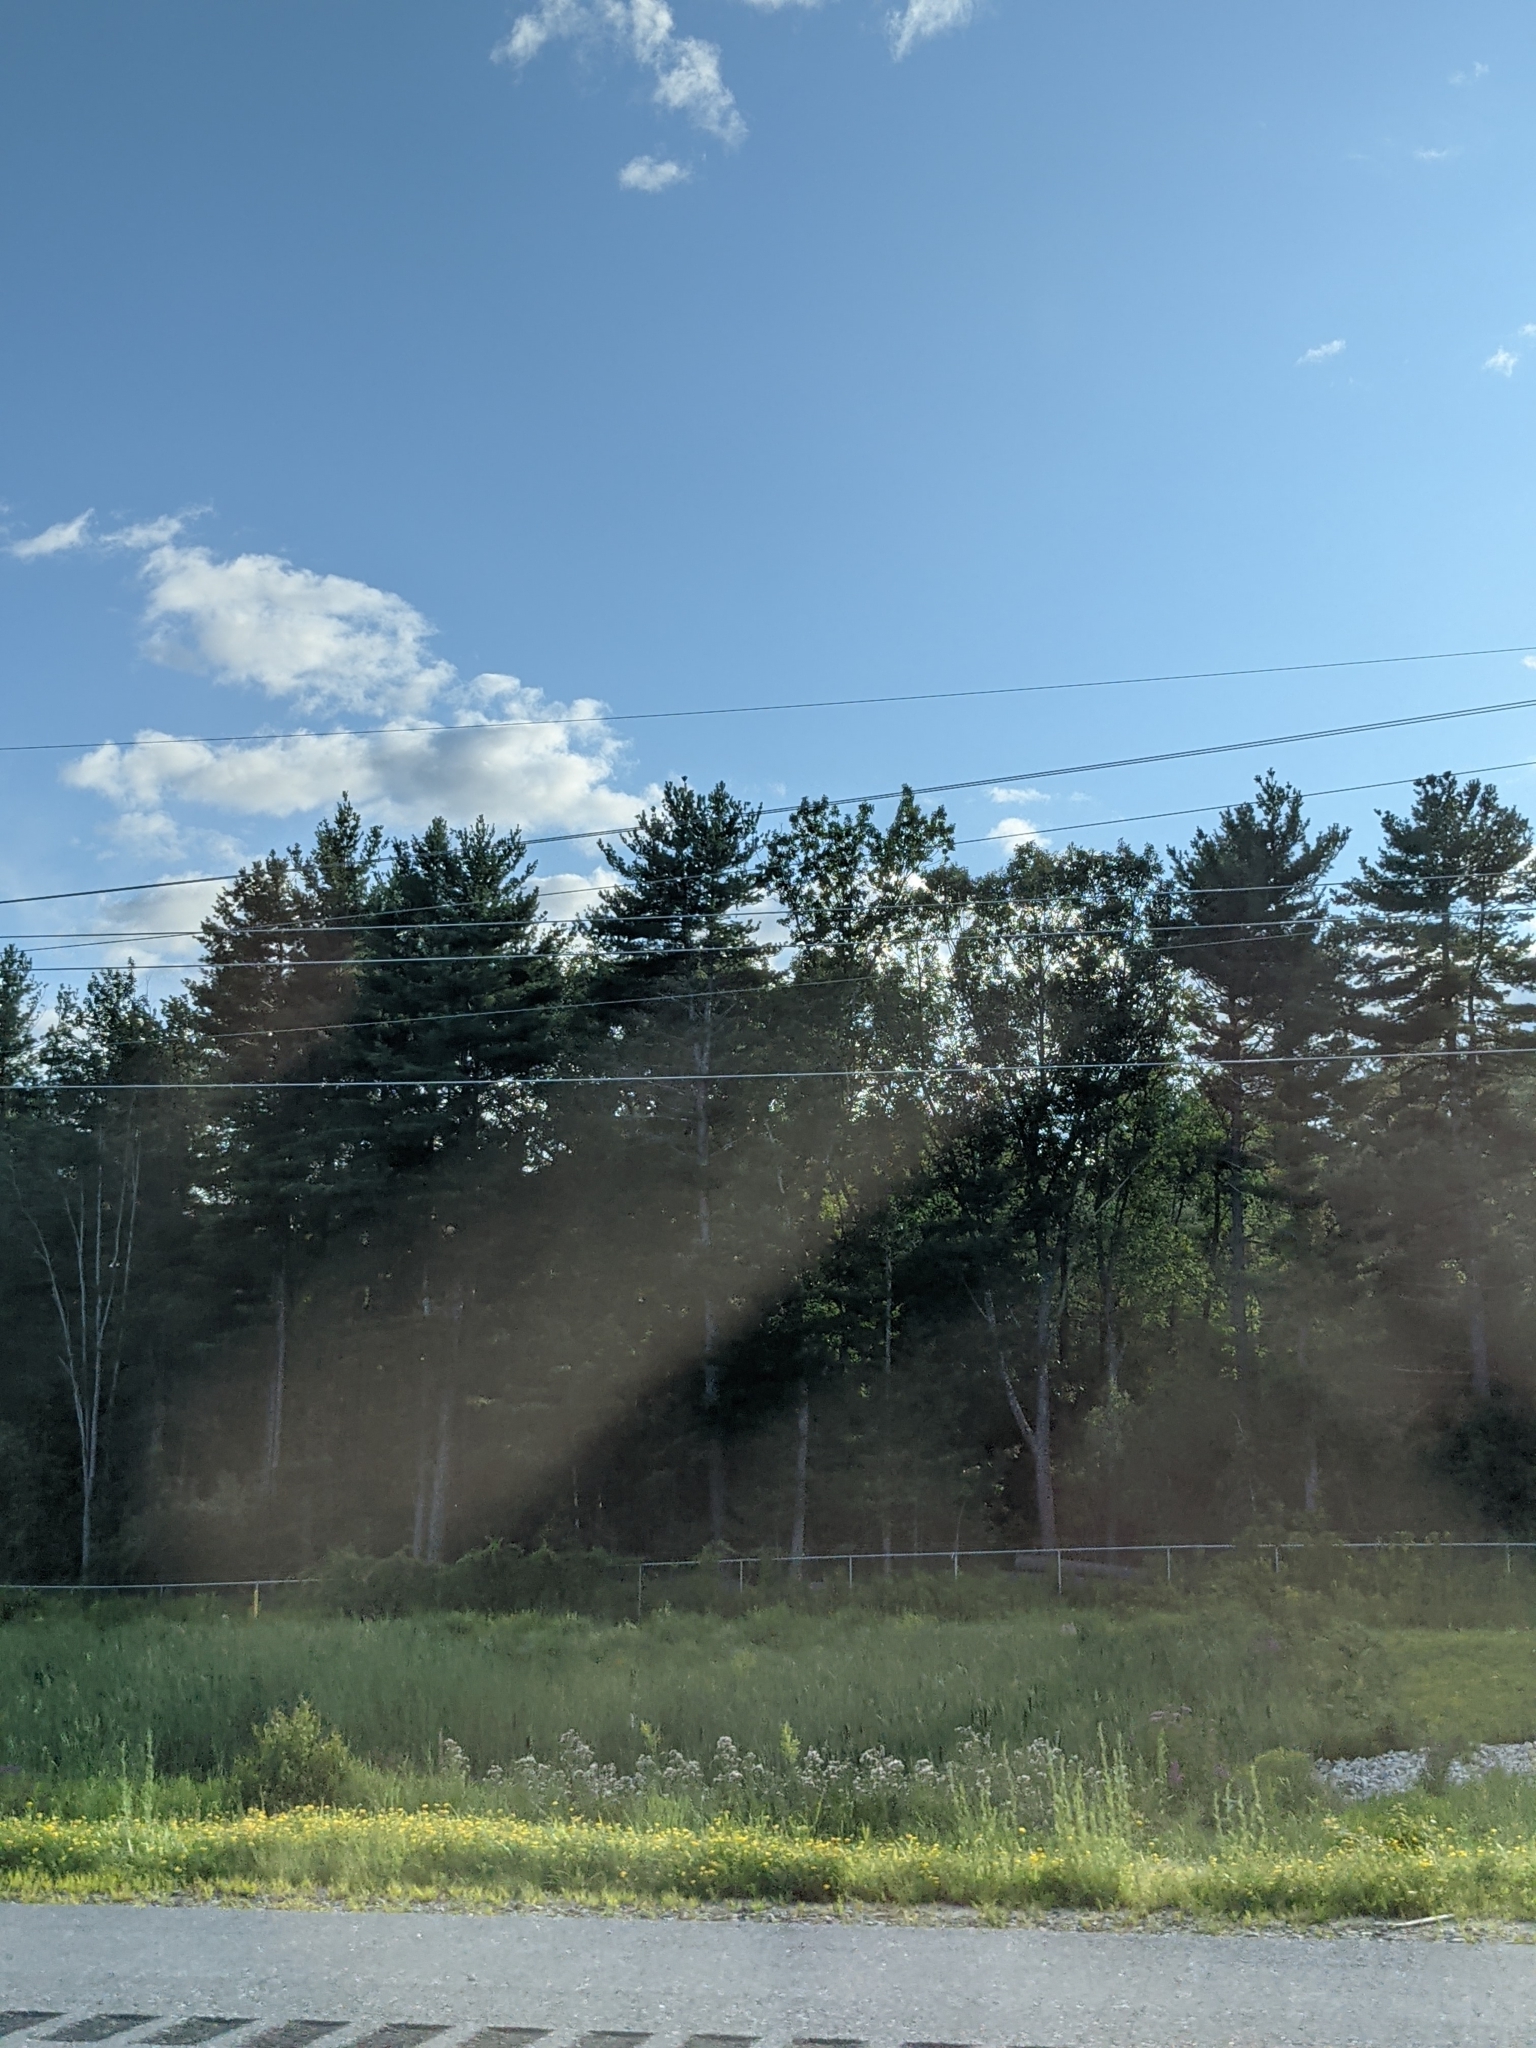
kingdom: Plantae
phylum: Tracheophyta
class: Pinopsida
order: Pinales
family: Pinaceae
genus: Pinus
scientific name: Pinus strobus
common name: Weymouth pine
